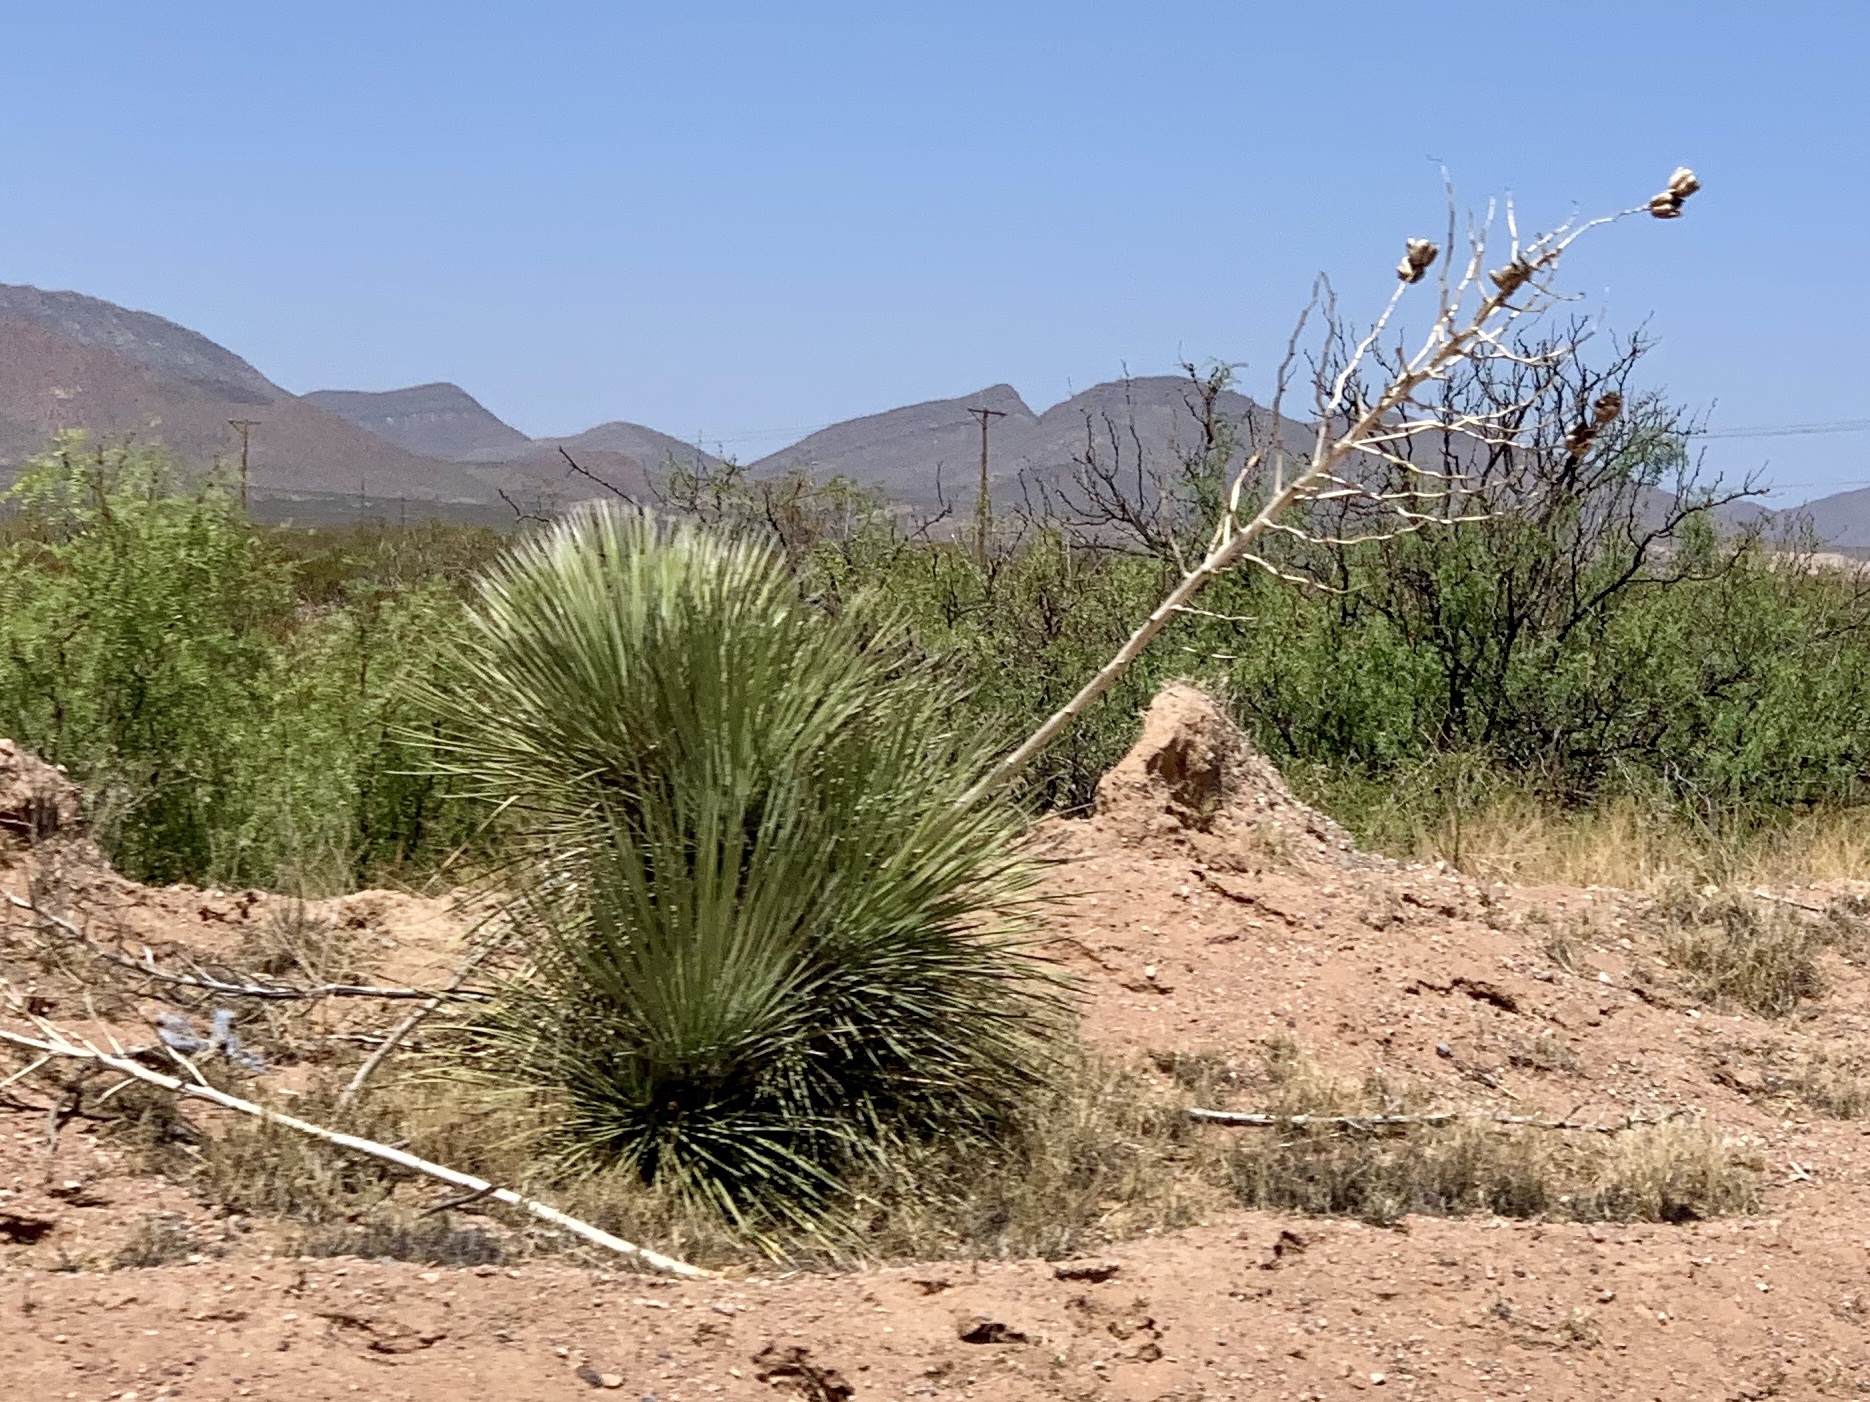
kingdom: Plantae
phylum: Tracheophyta
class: Liliopsida
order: Asparagales
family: Asparagaceae
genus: Yucca
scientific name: Yucca elata
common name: Palmella
